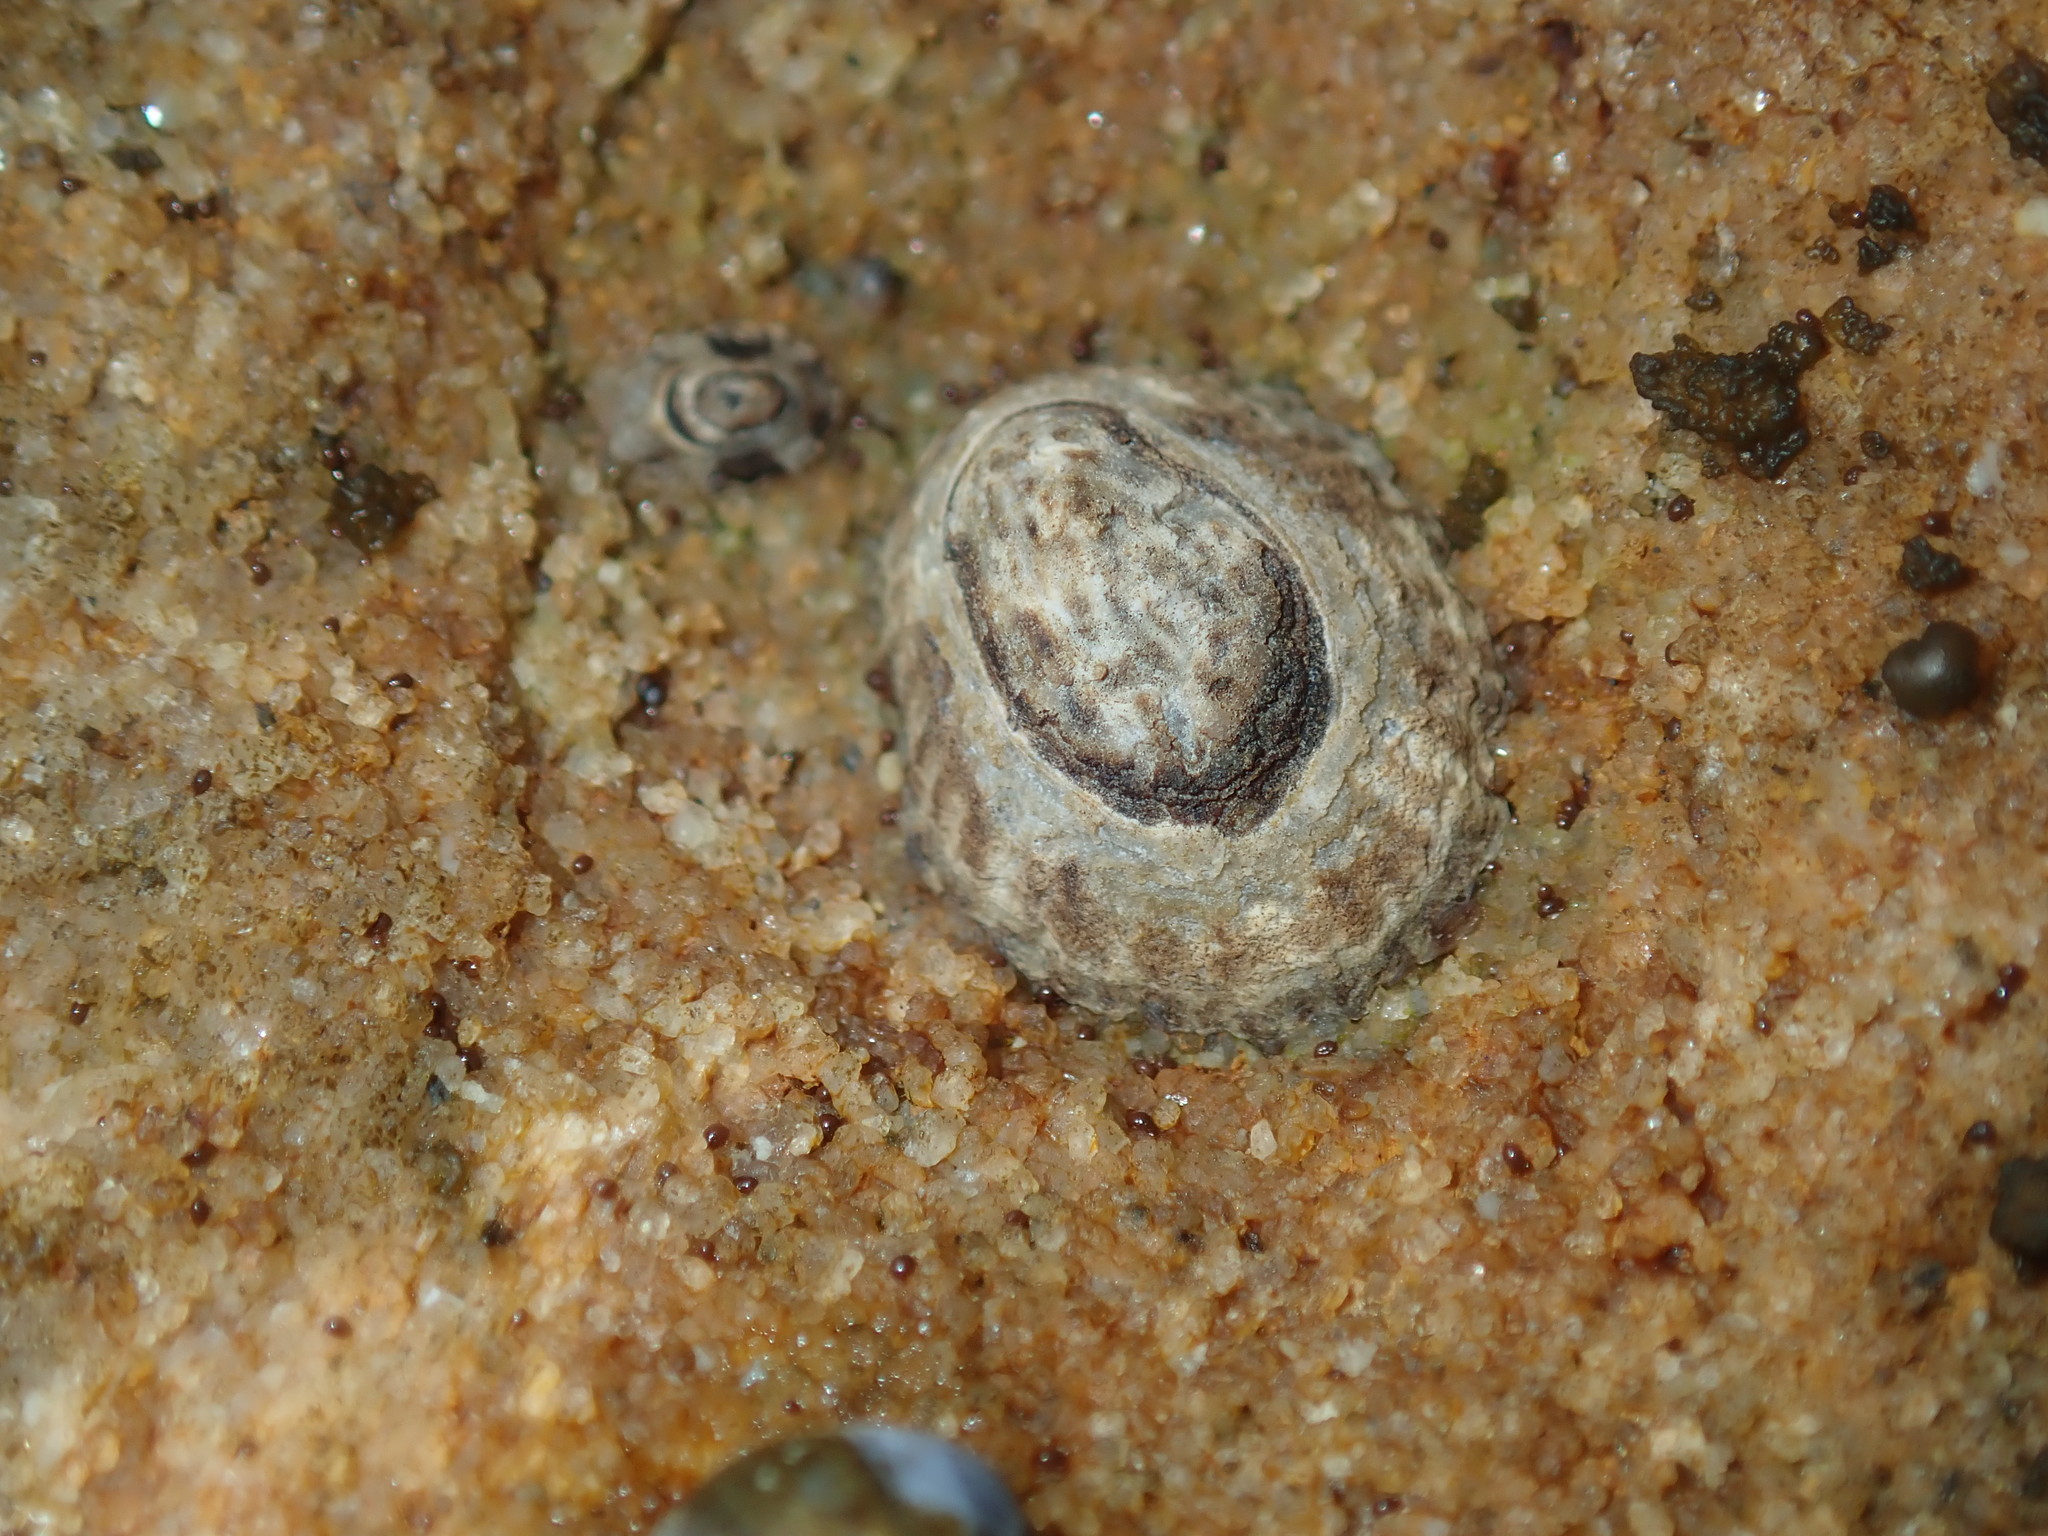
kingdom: Animalia
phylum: Mollusca
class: Gastropoda
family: Lottiidae
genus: Patelloida
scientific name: Patelloida latistrigata
